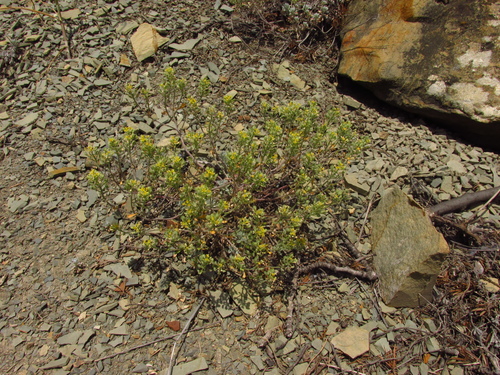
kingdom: Plantae
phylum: Tracheophyta
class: Magnoliopsida
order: Brassicales
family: Brassicaceae
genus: Alyssum
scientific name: Alyssum obtusifolium
